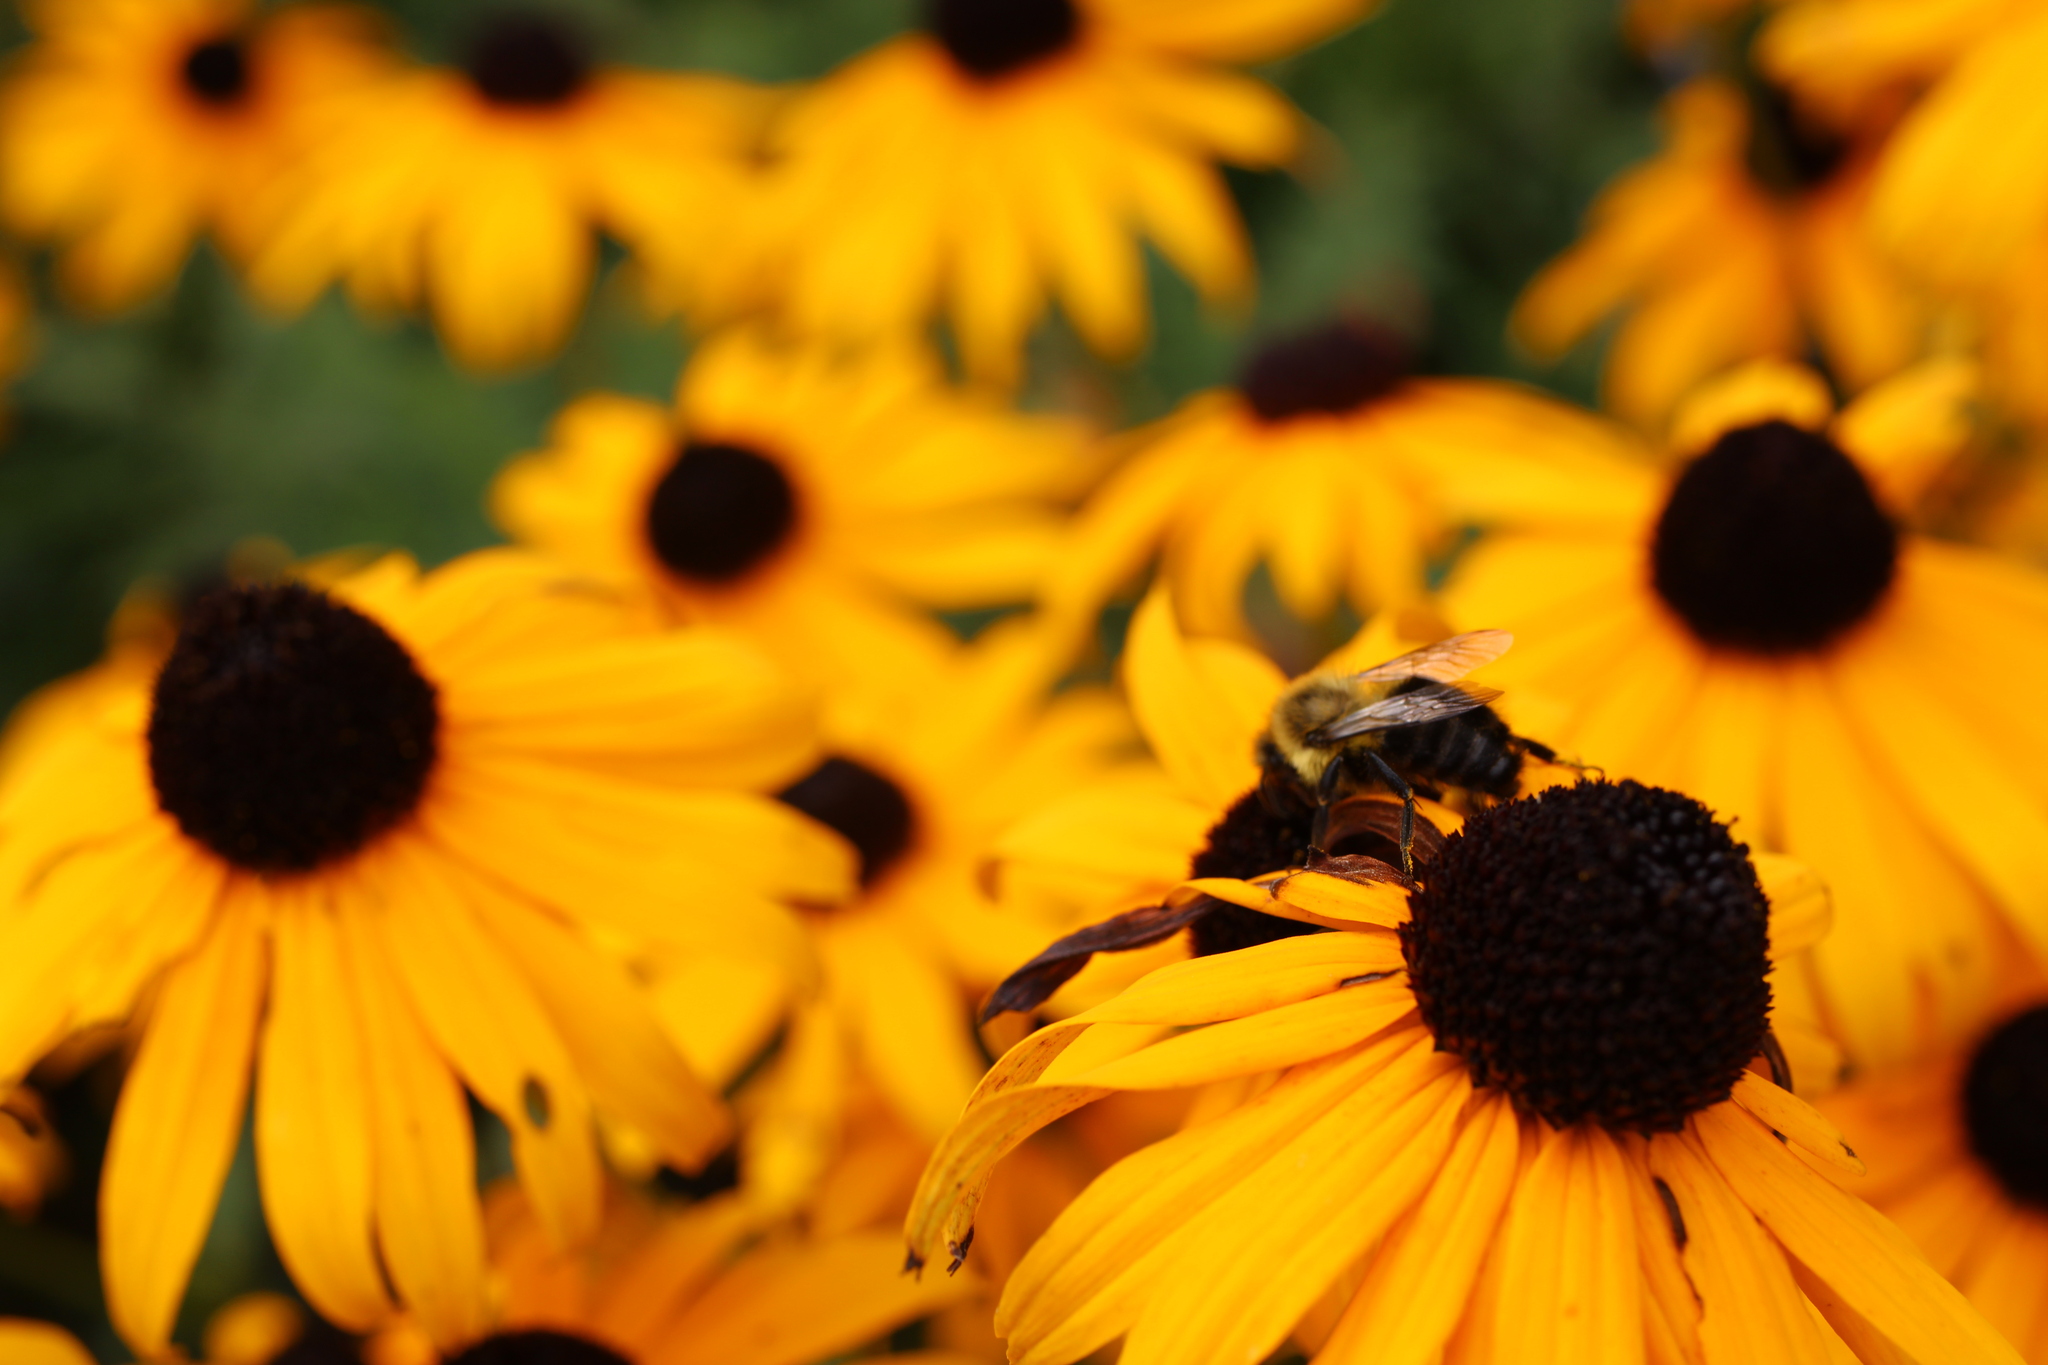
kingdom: Animalia
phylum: Arthropoda
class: Insecta
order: Hymenoptera
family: Apidae
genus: Bombus
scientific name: Bombus impatiens
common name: Common eastern bumble bee
